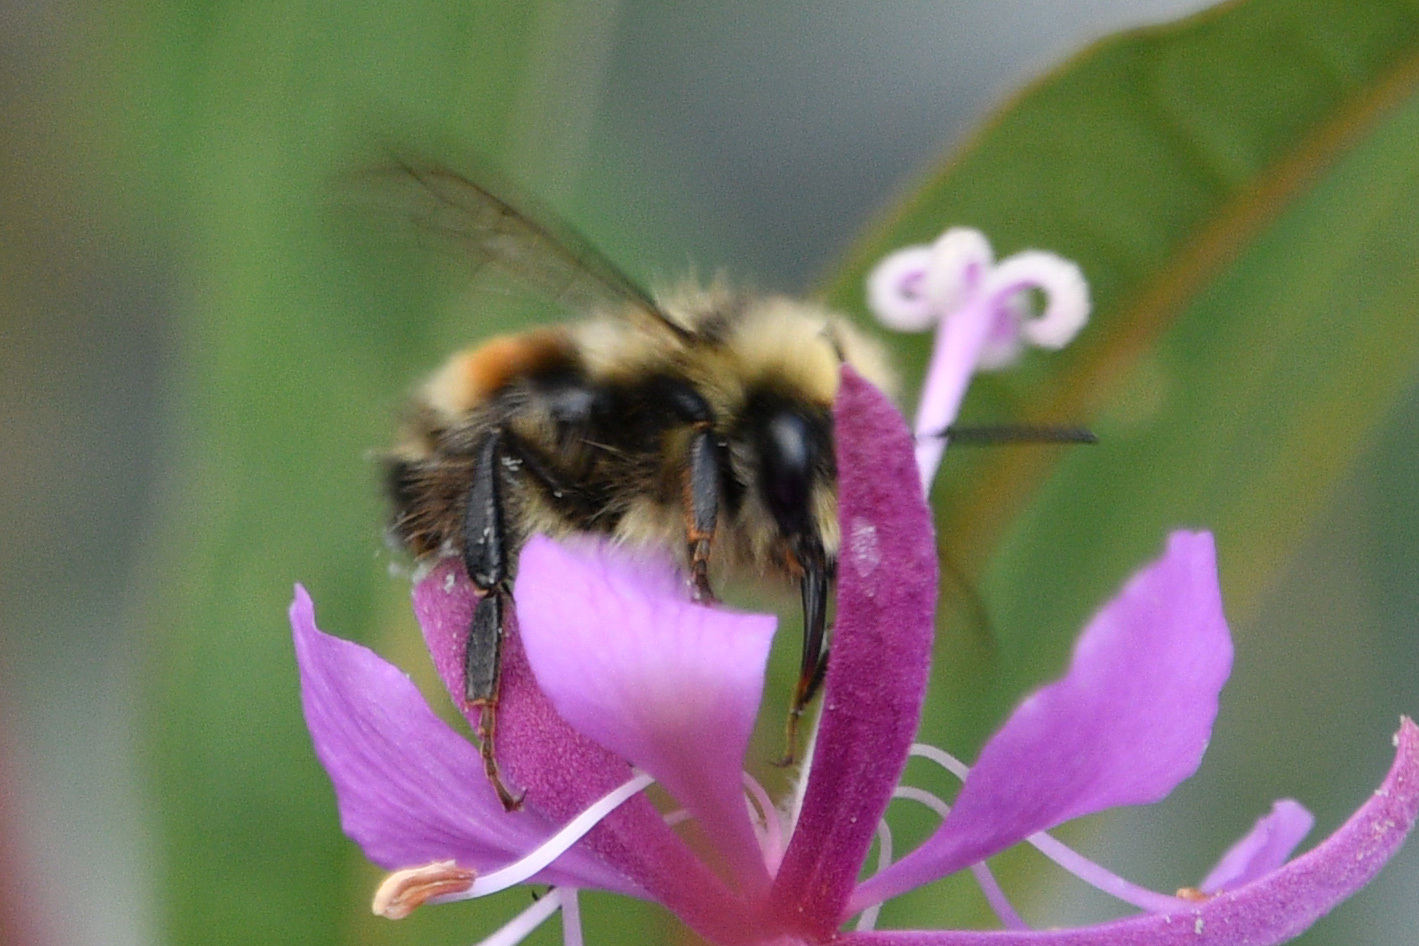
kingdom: Animalia
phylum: Arthropoda
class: Insecta
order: Hymenoptera
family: Apidae
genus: Bombus
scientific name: Bombus vancouverensis
